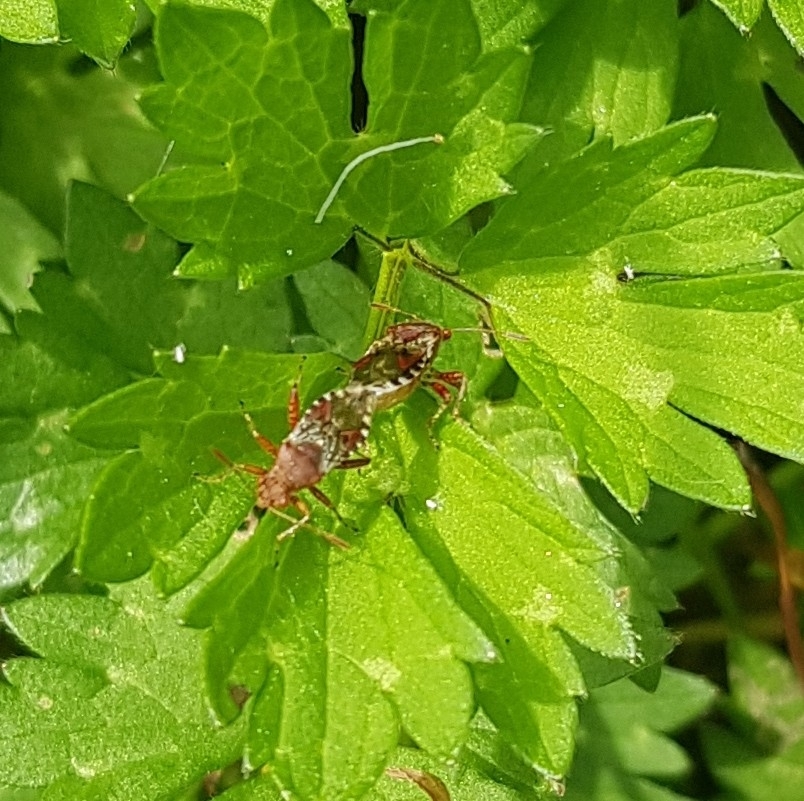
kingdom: Animalia
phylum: Arthropoda
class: Insecta
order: Hemiptera
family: Rhopalidae
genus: Rhopalus
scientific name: Rhopalus subrufus
